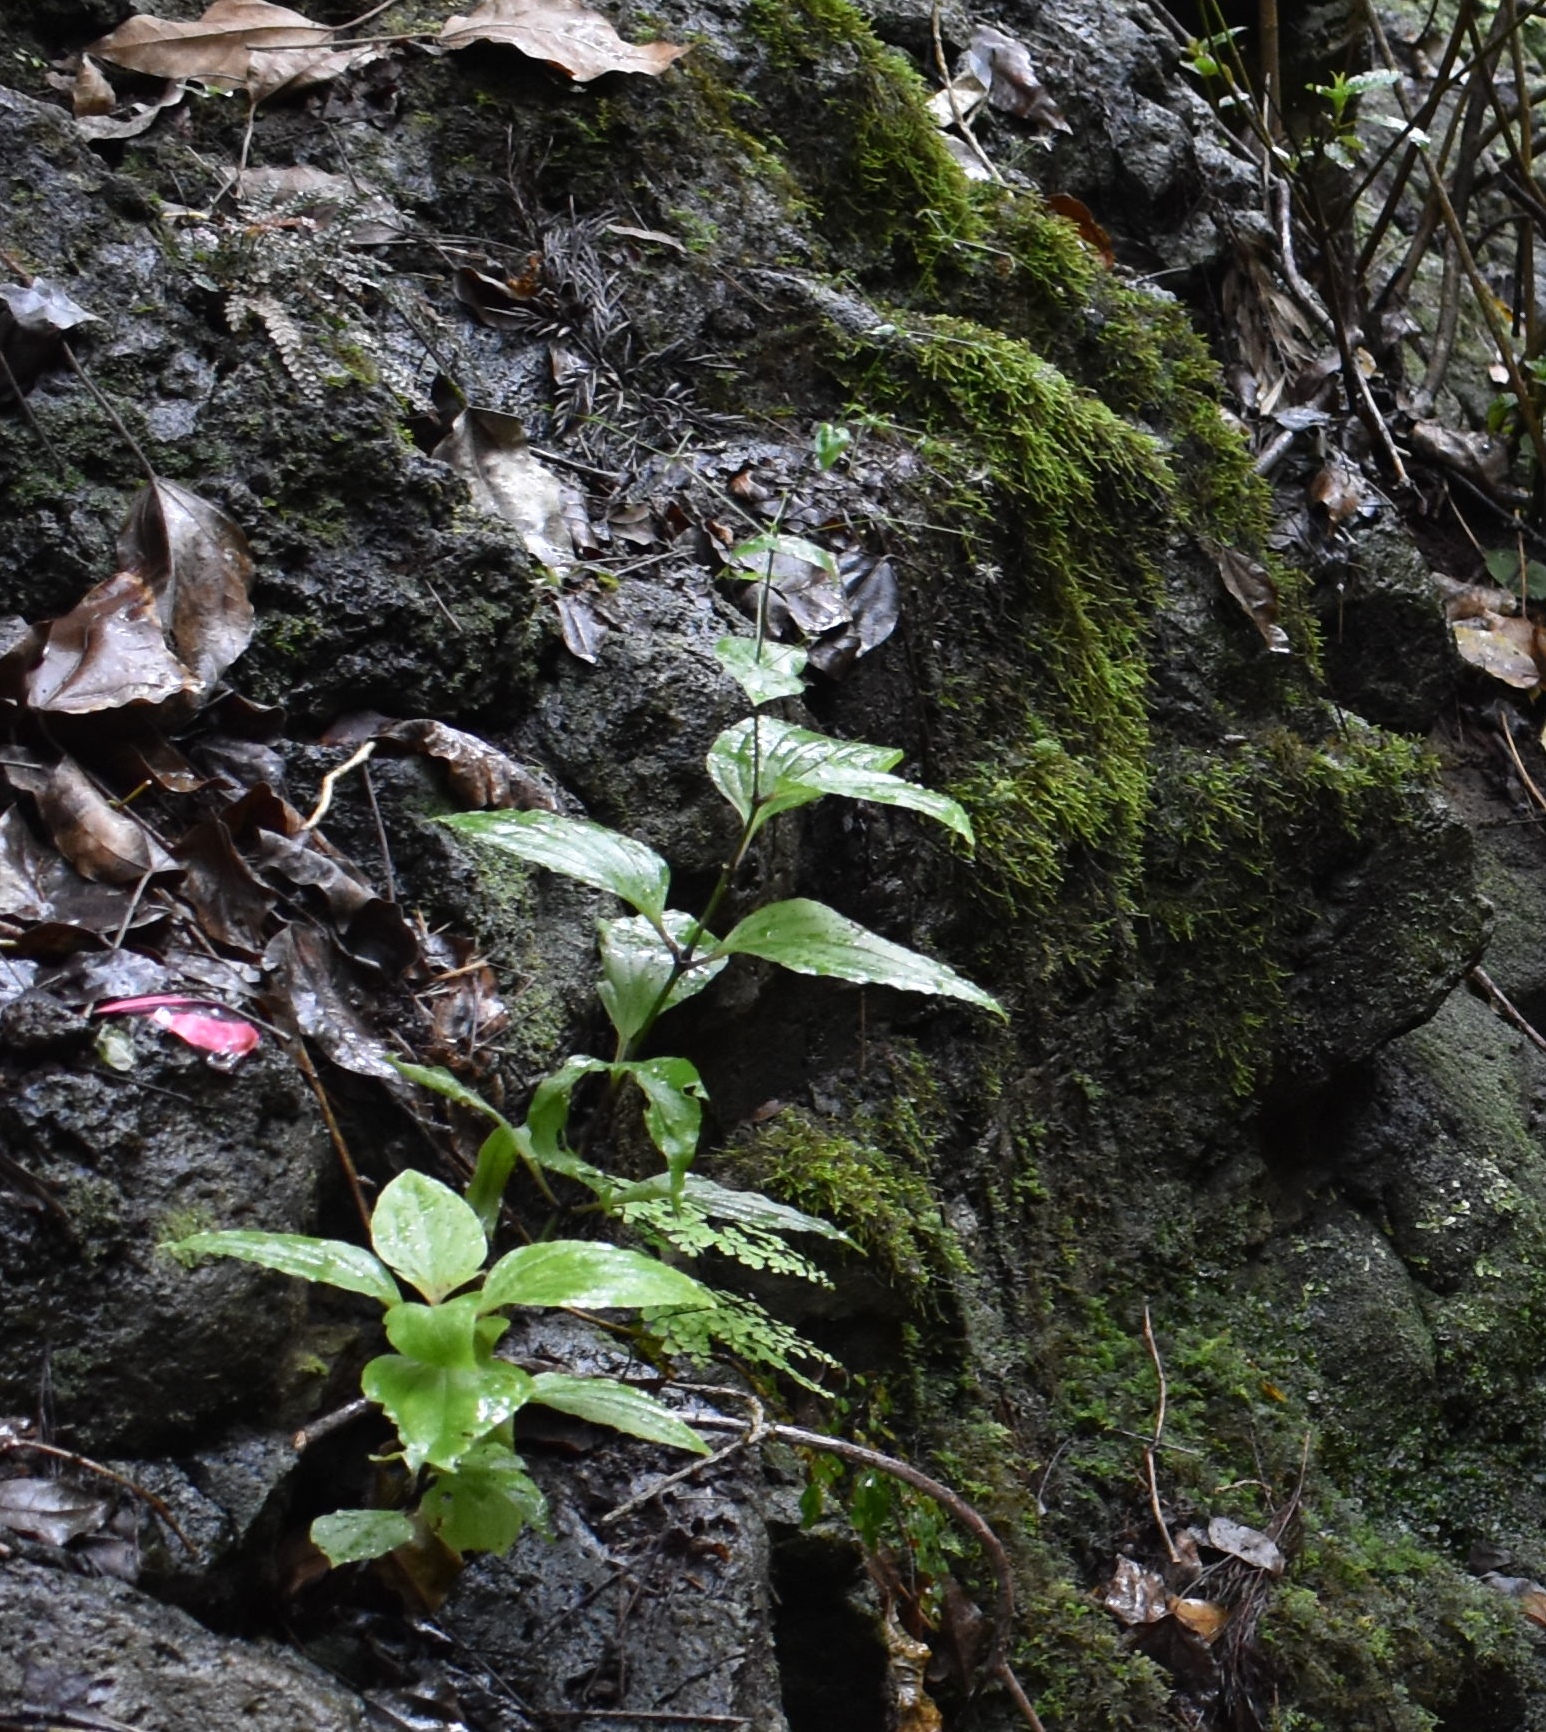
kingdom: Plantae
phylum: Tracheophyta
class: Magnoliopsida
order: Caryophyllales
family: Caryophyllaceae
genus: Schiedea
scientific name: Schiedea membranacea
